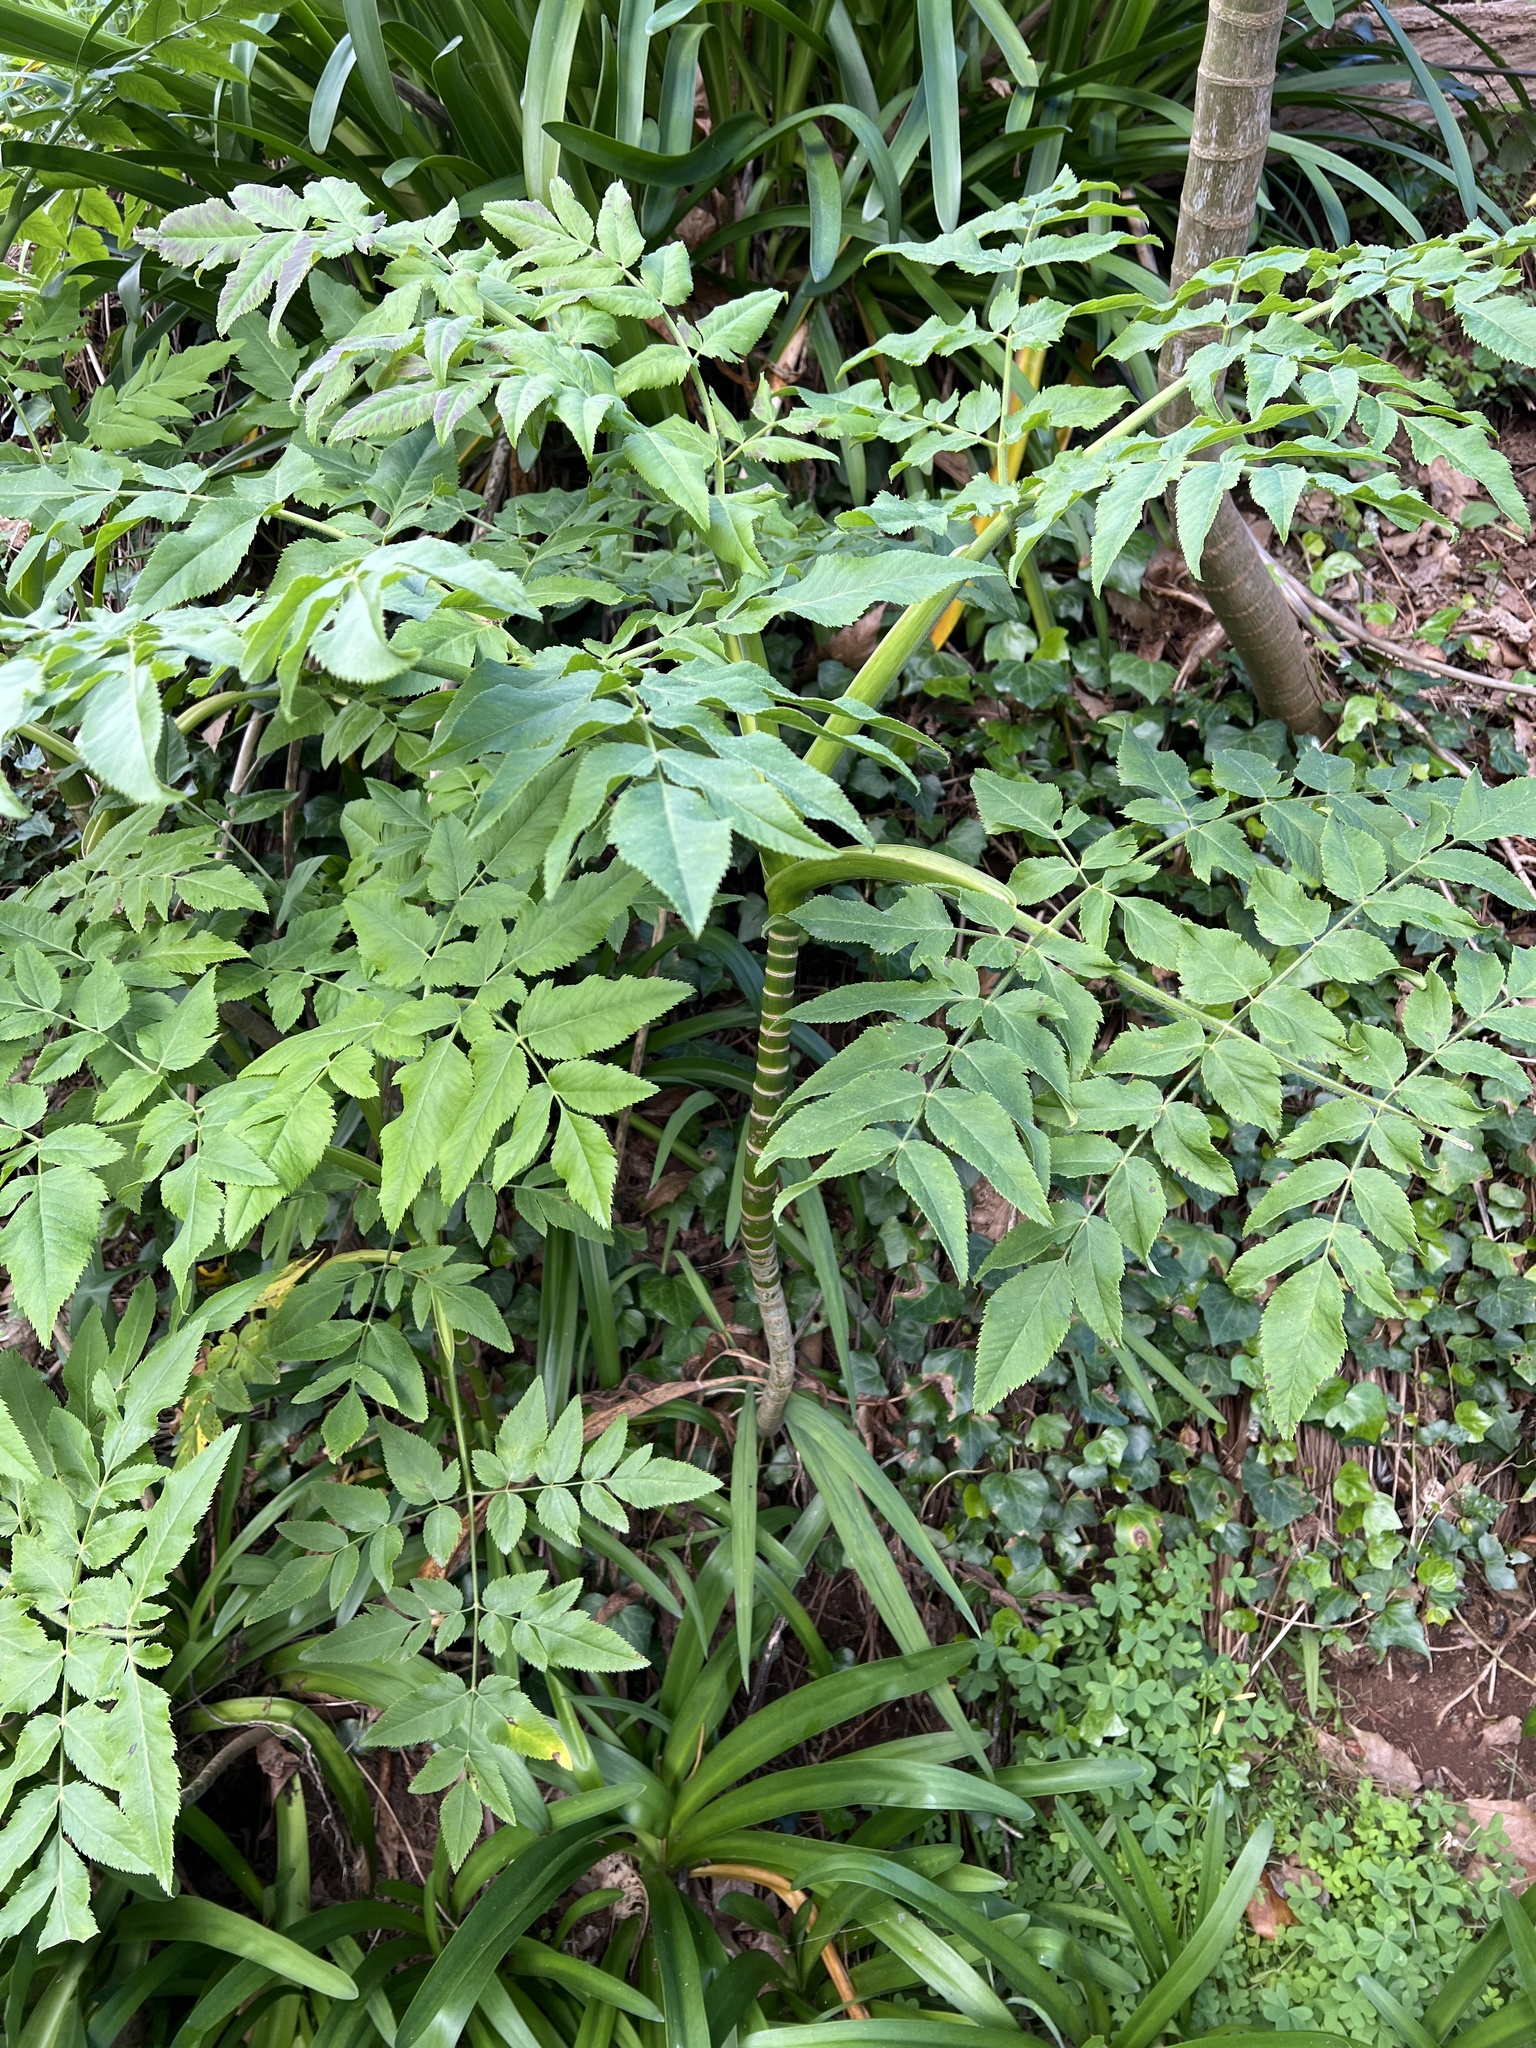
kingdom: Plantae
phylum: Tracheophyta
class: Magnoliopsida
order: Apiales
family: Apiaceae
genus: Daucus
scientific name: Daucus decipiens
